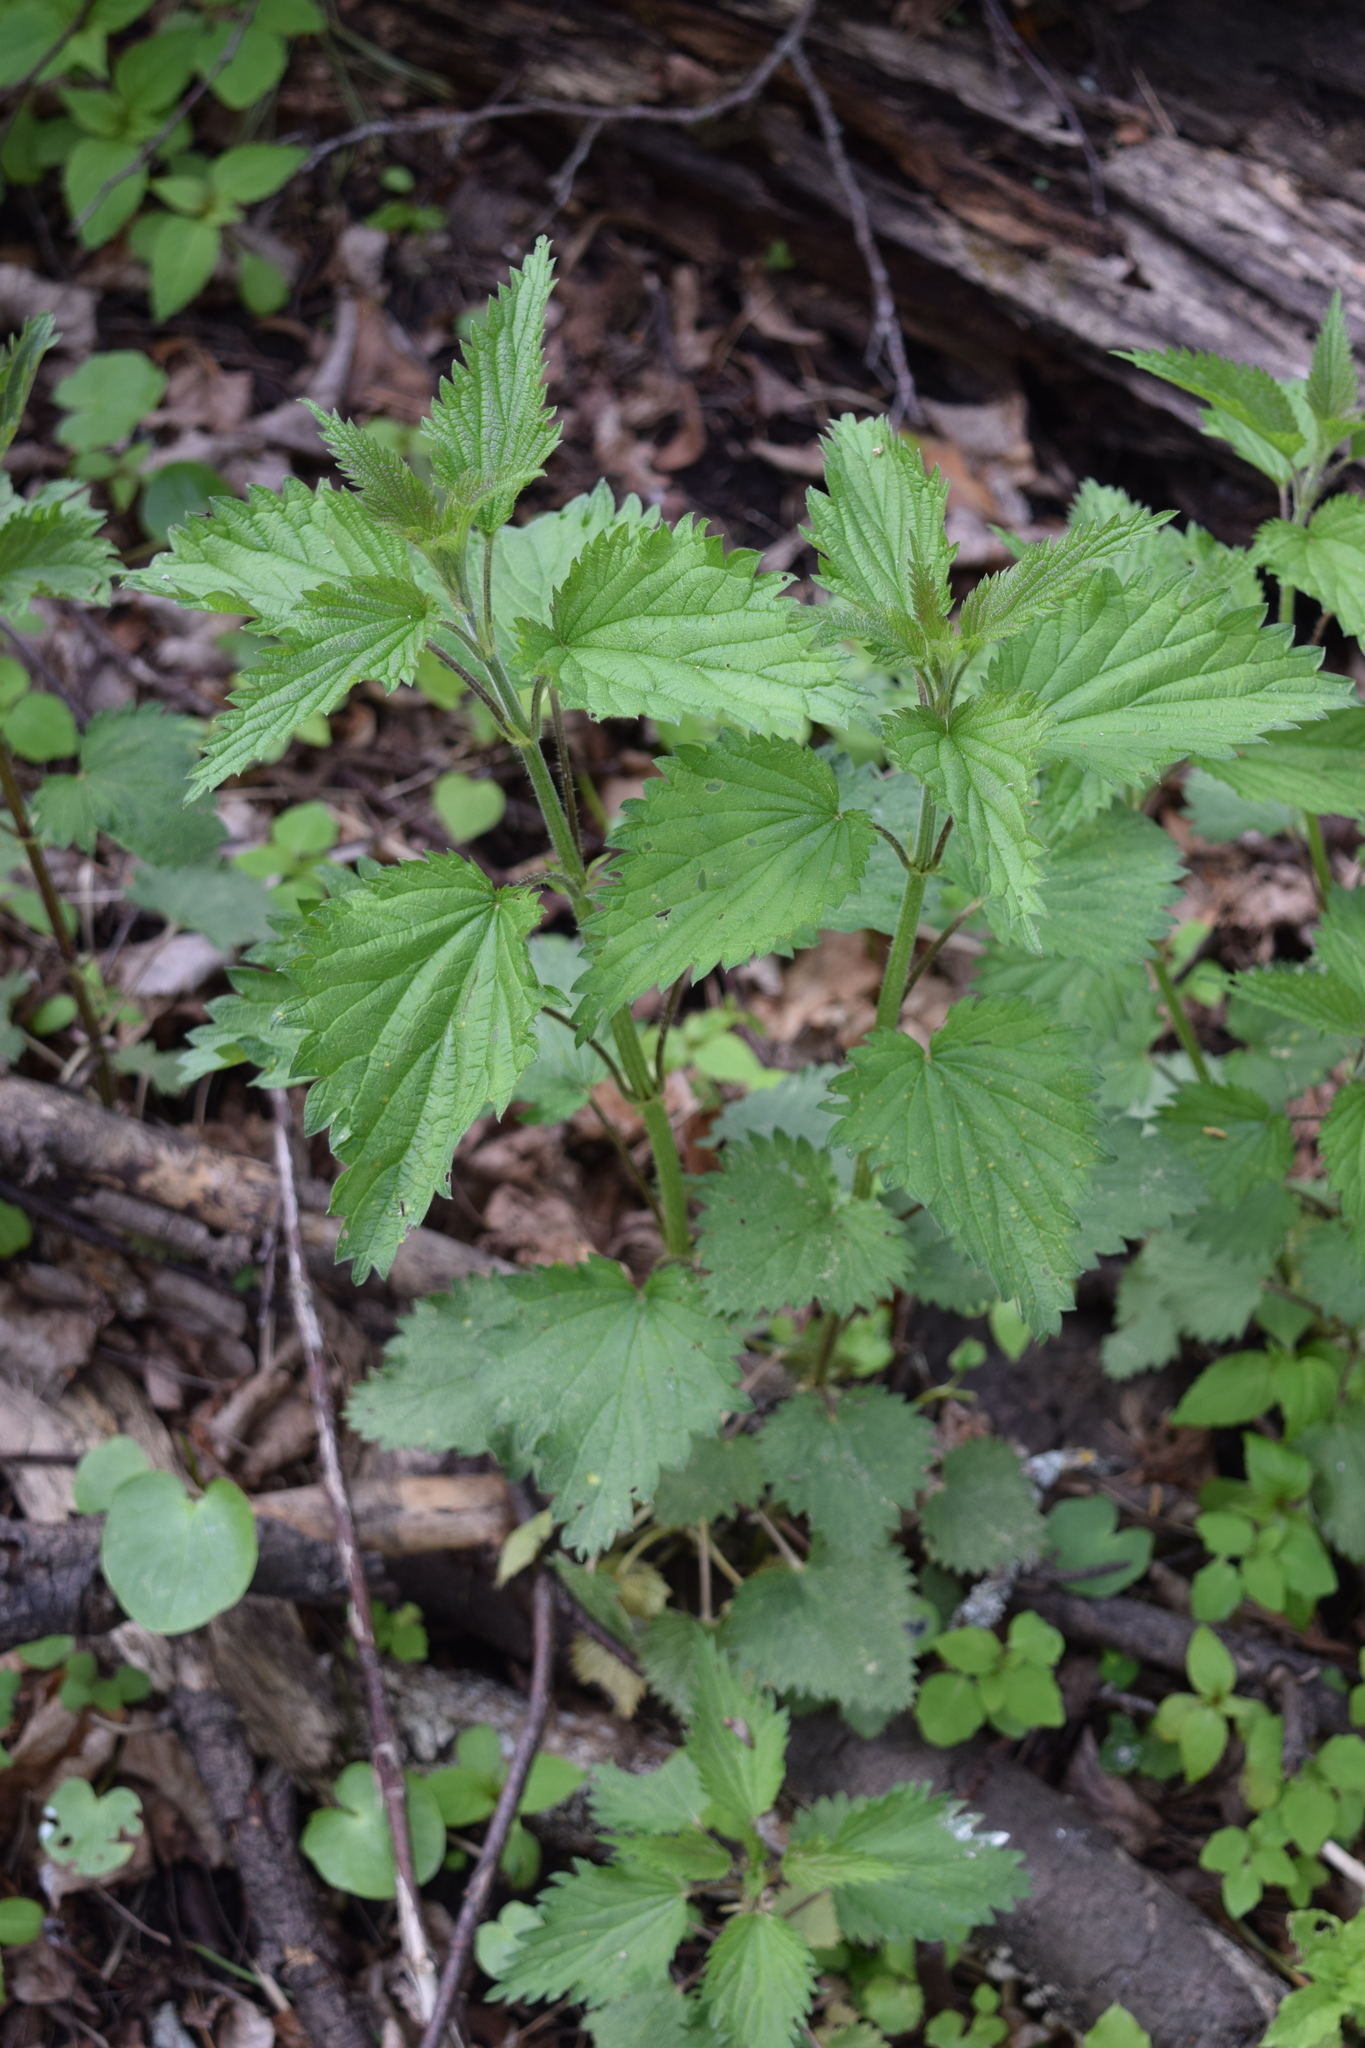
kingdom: Plantae
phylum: Tracheophyta
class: Magnoliopsida
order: Rosales
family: Urticaceae
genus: Urtica
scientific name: Urtica dioica
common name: Common nettle
